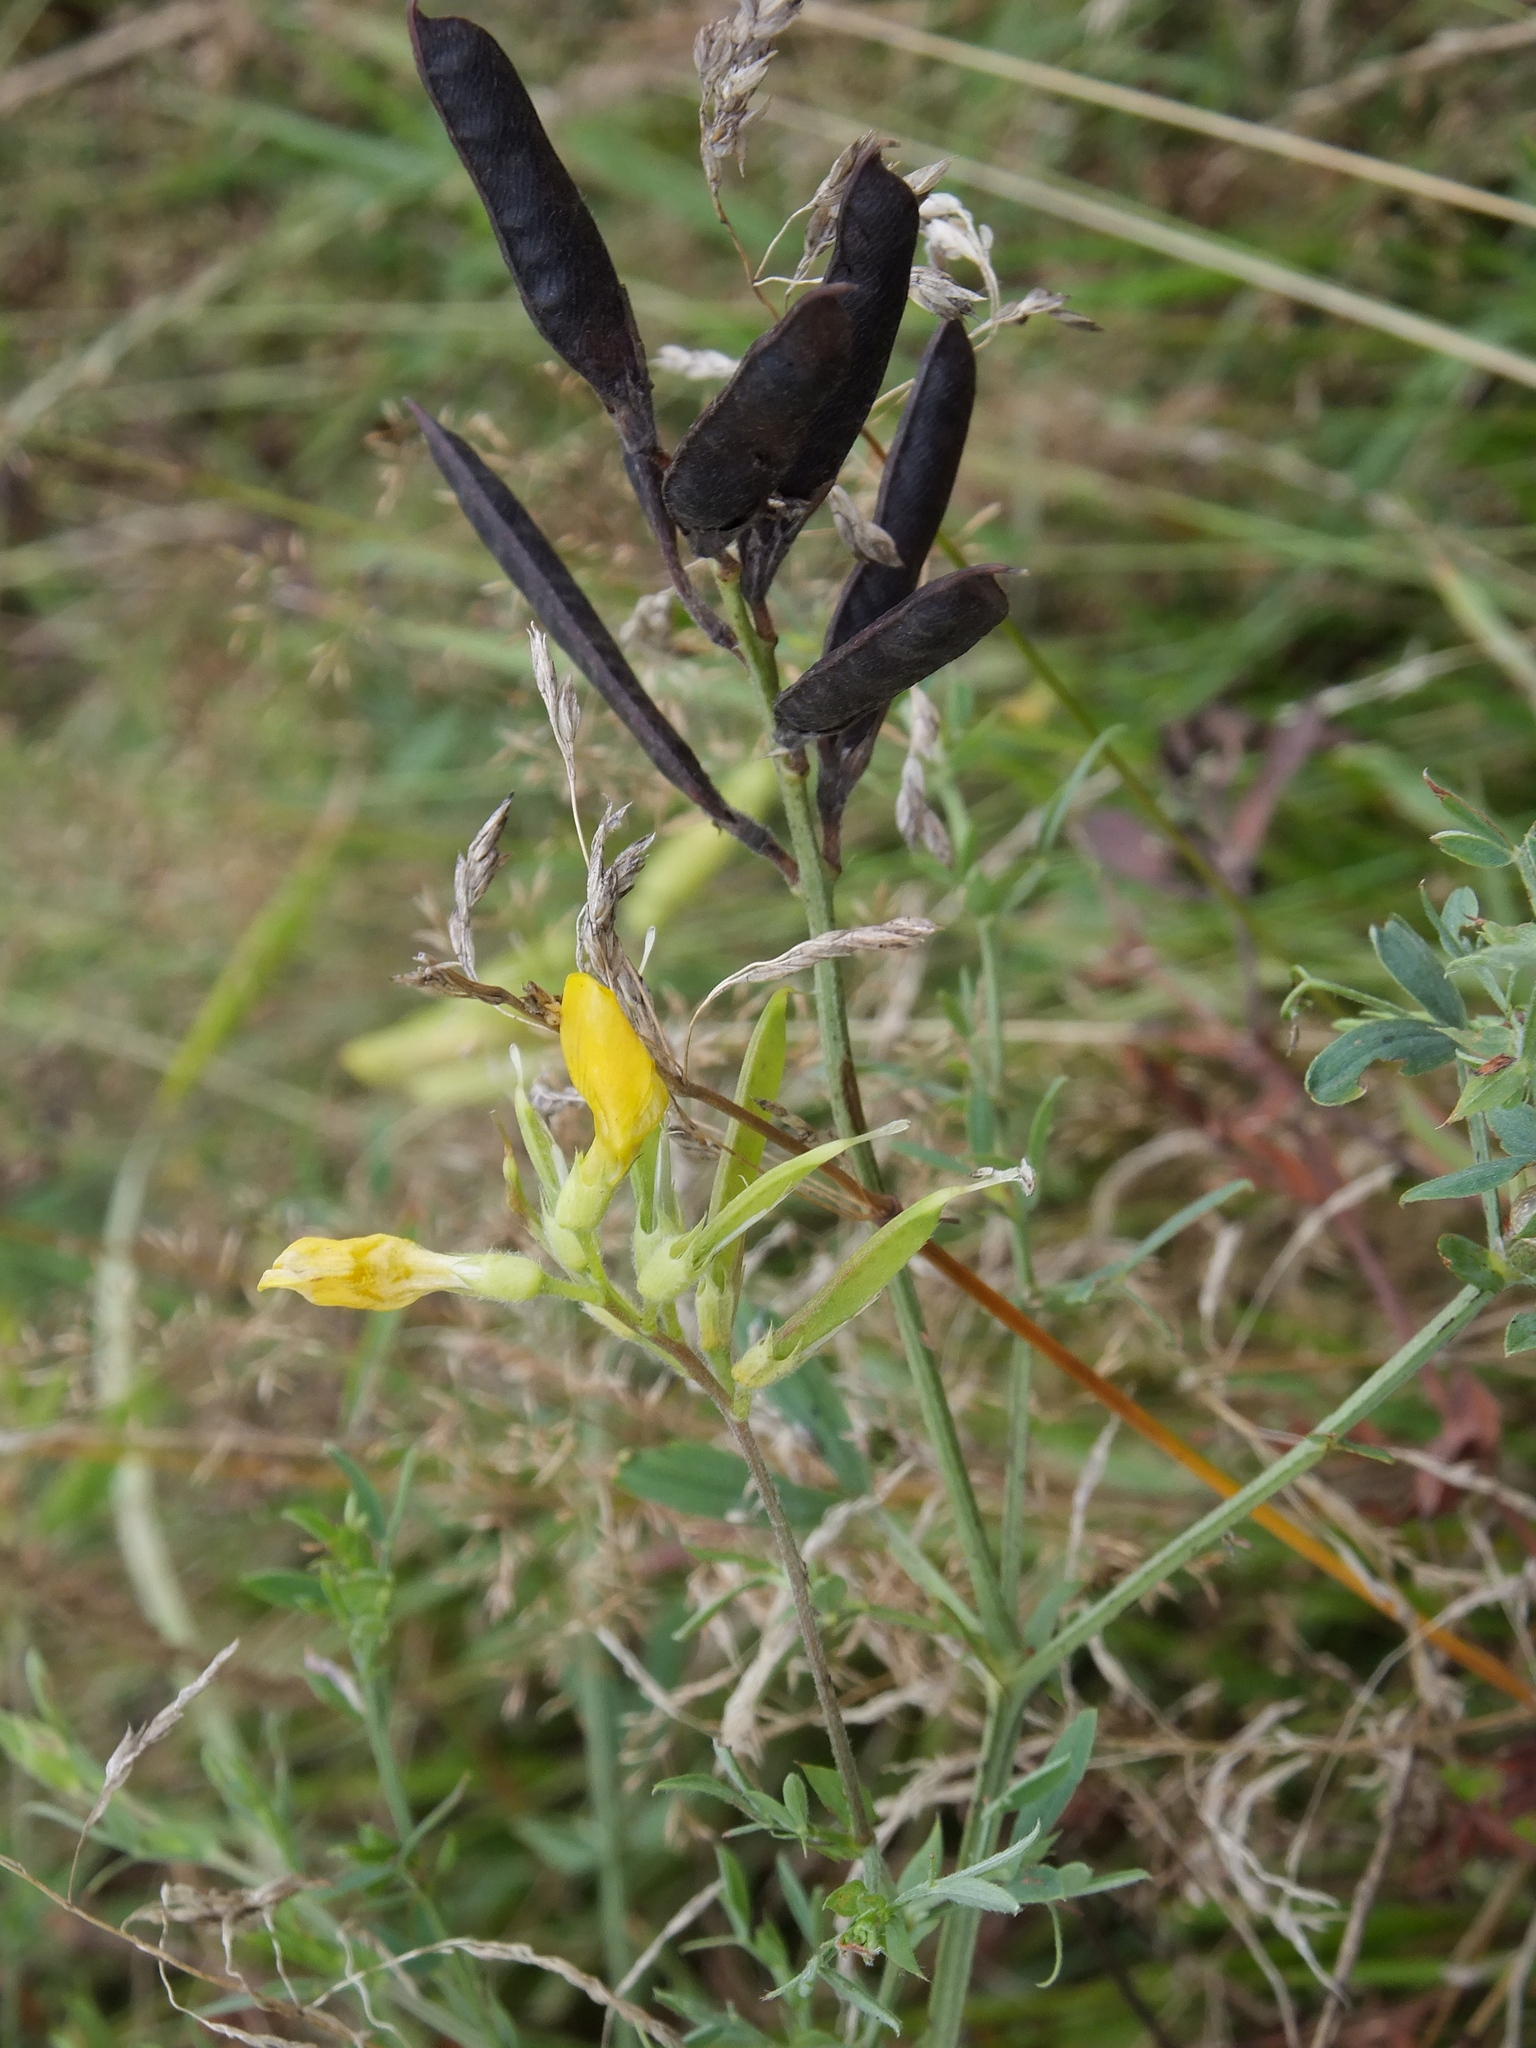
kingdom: Plantae
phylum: Tracheophyta
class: Magnoliopsida
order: Fabales
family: Fabaceae
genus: Lathyrus
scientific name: Lathyrus pratensis
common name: Meadow vetchling
